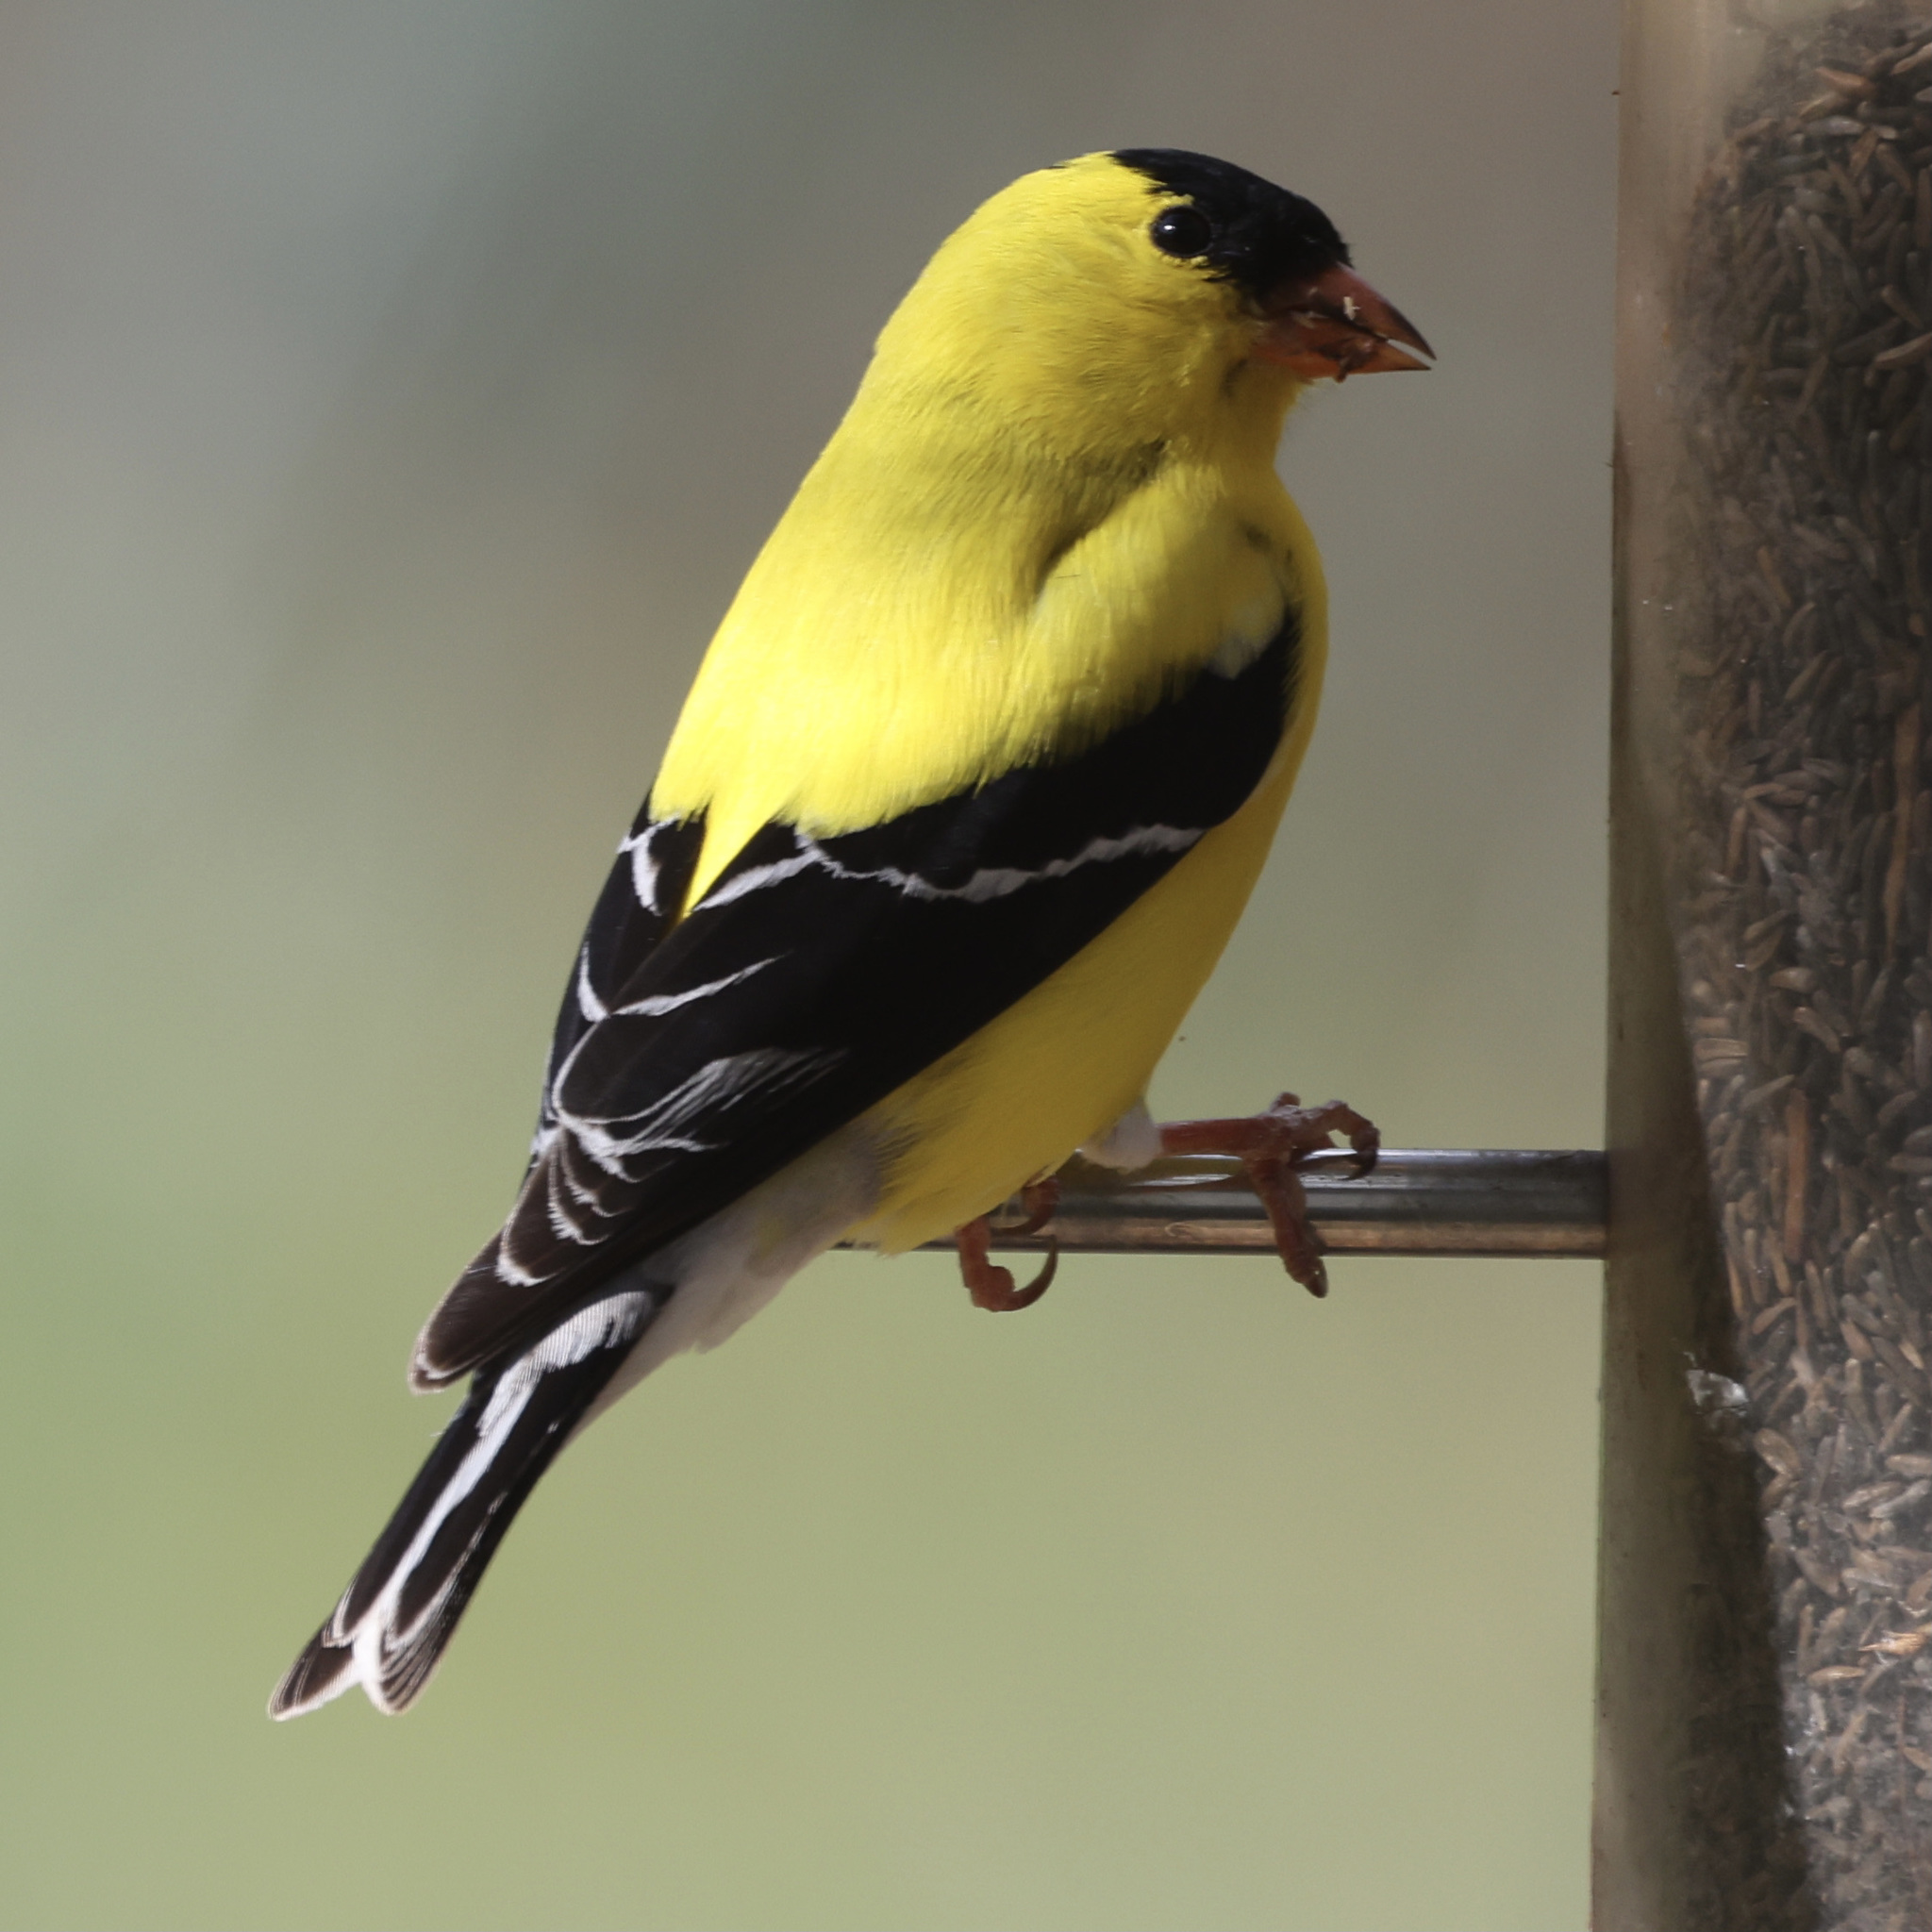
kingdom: Animalia
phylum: Chordata
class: Aves
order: Passeriformes
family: Fringillidae
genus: Spinus
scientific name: Spinus tristis
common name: American goldfinch
